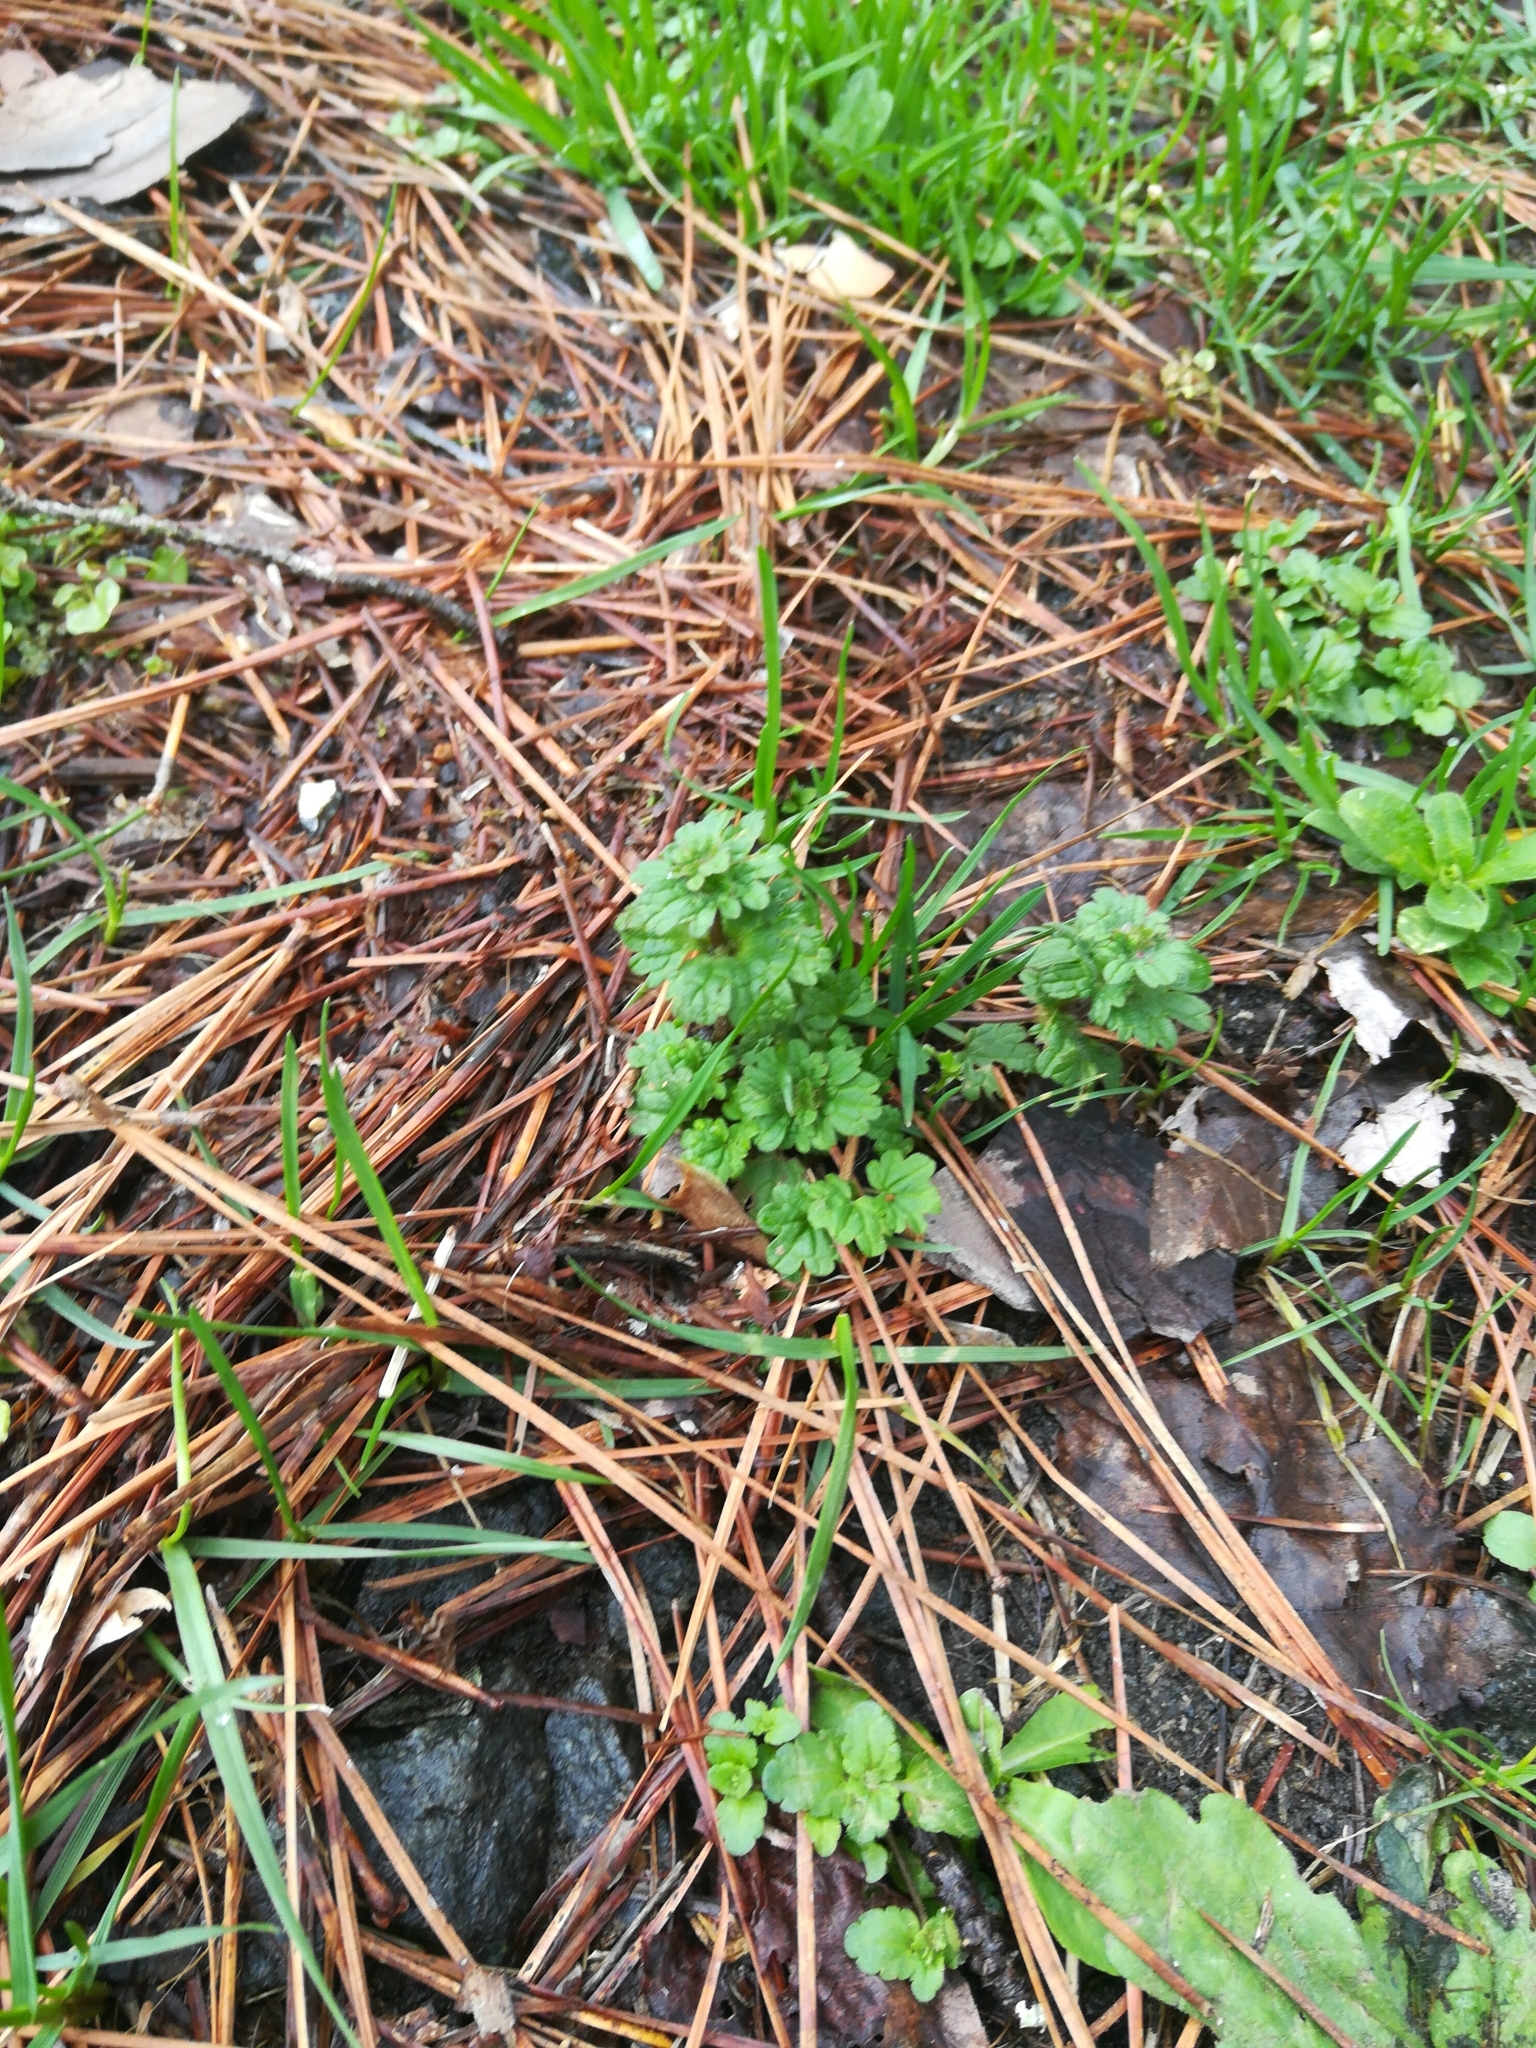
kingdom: Plantae
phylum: Tracheophyta
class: Magnoliopsida
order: Lamiales
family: Lamiaceae
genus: Lamium
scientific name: Lamium amplexicaule
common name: Henbit dead-nettle
